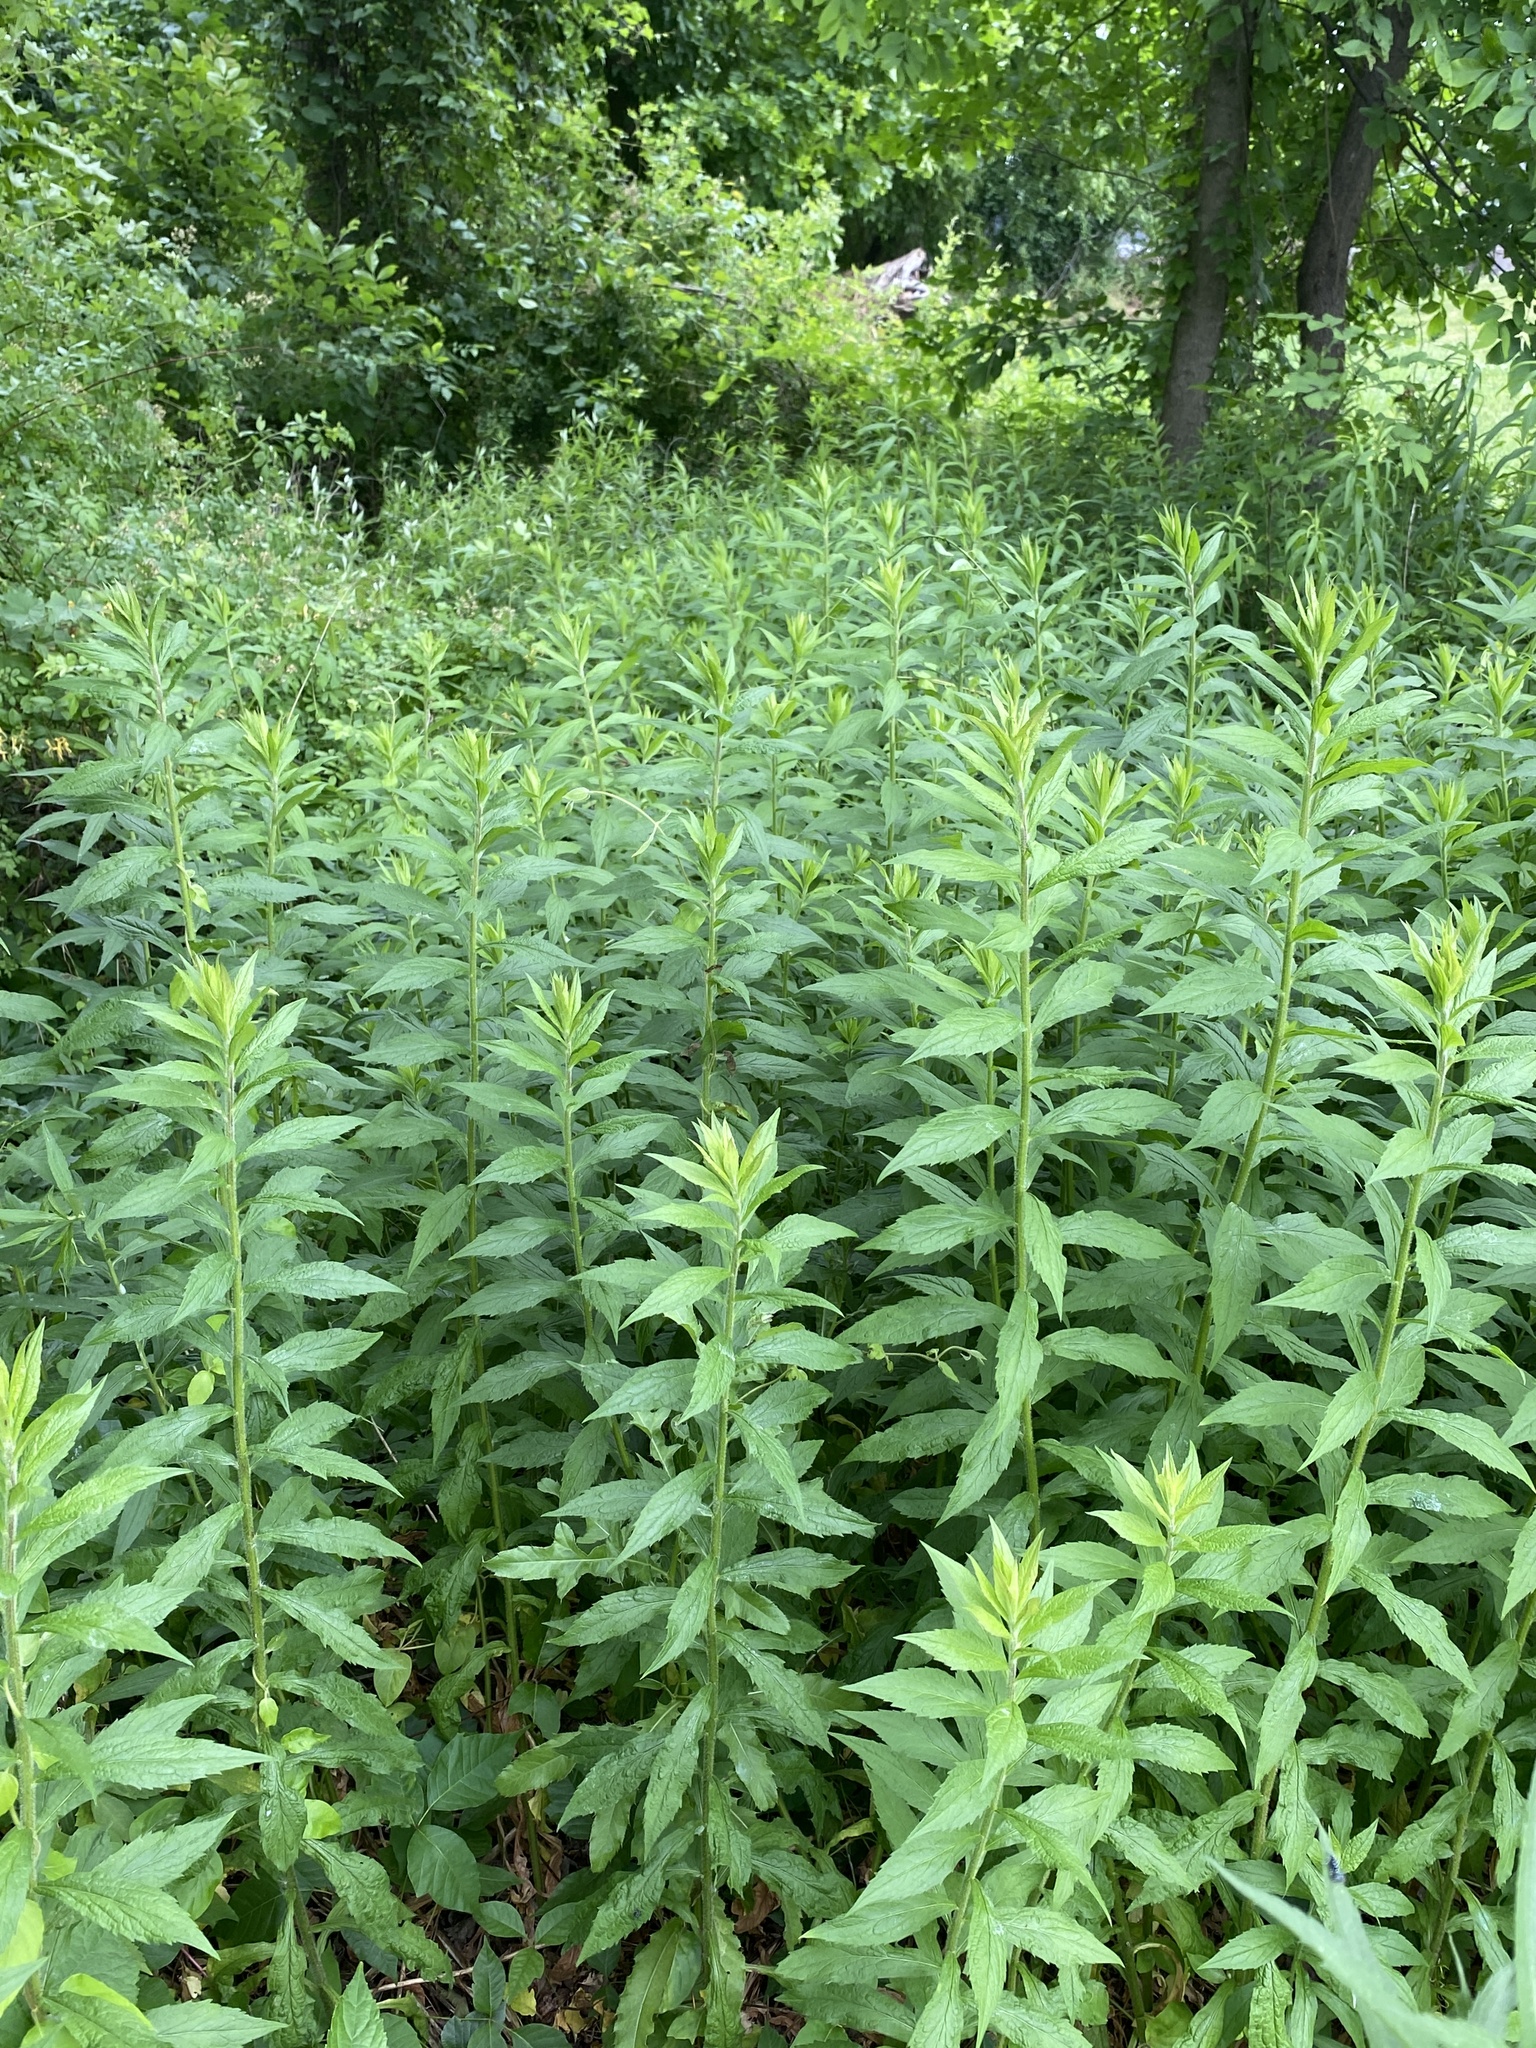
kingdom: Plantae
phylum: Tracheophyta
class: Magnoliopsida
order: Asterales
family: Asteraceae
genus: Solidago
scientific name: Solidago rugosa
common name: Rough-stemmed goldenrod
